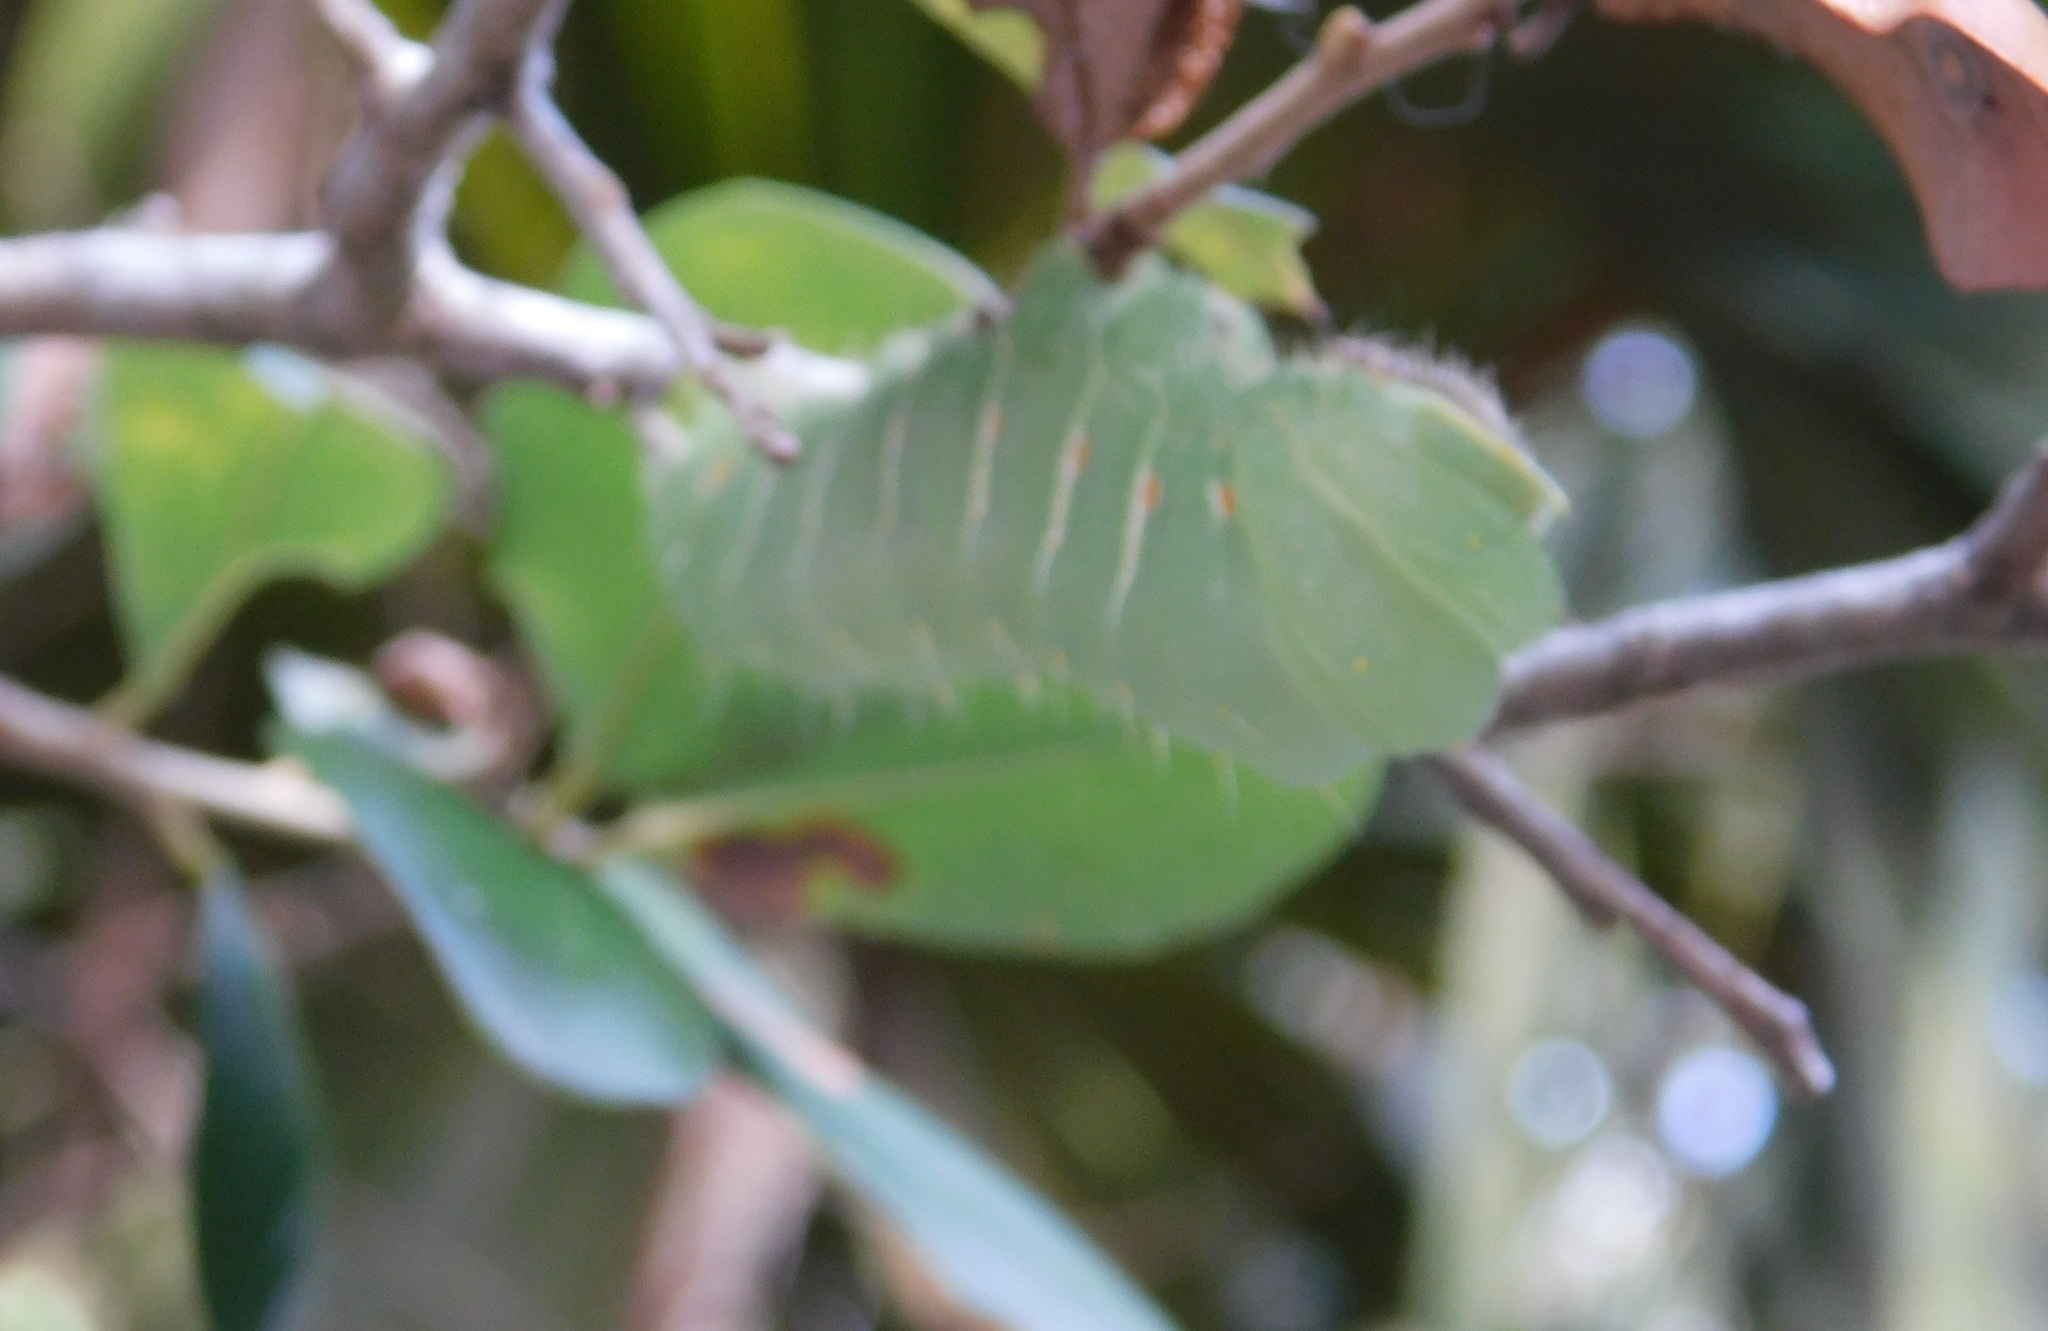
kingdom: Animalia
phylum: Arthropoda
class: Insecta
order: Lepidoptera
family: Saturniidae
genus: Antheraea
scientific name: Antheraea polyphemus
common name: Polyphemus moth
